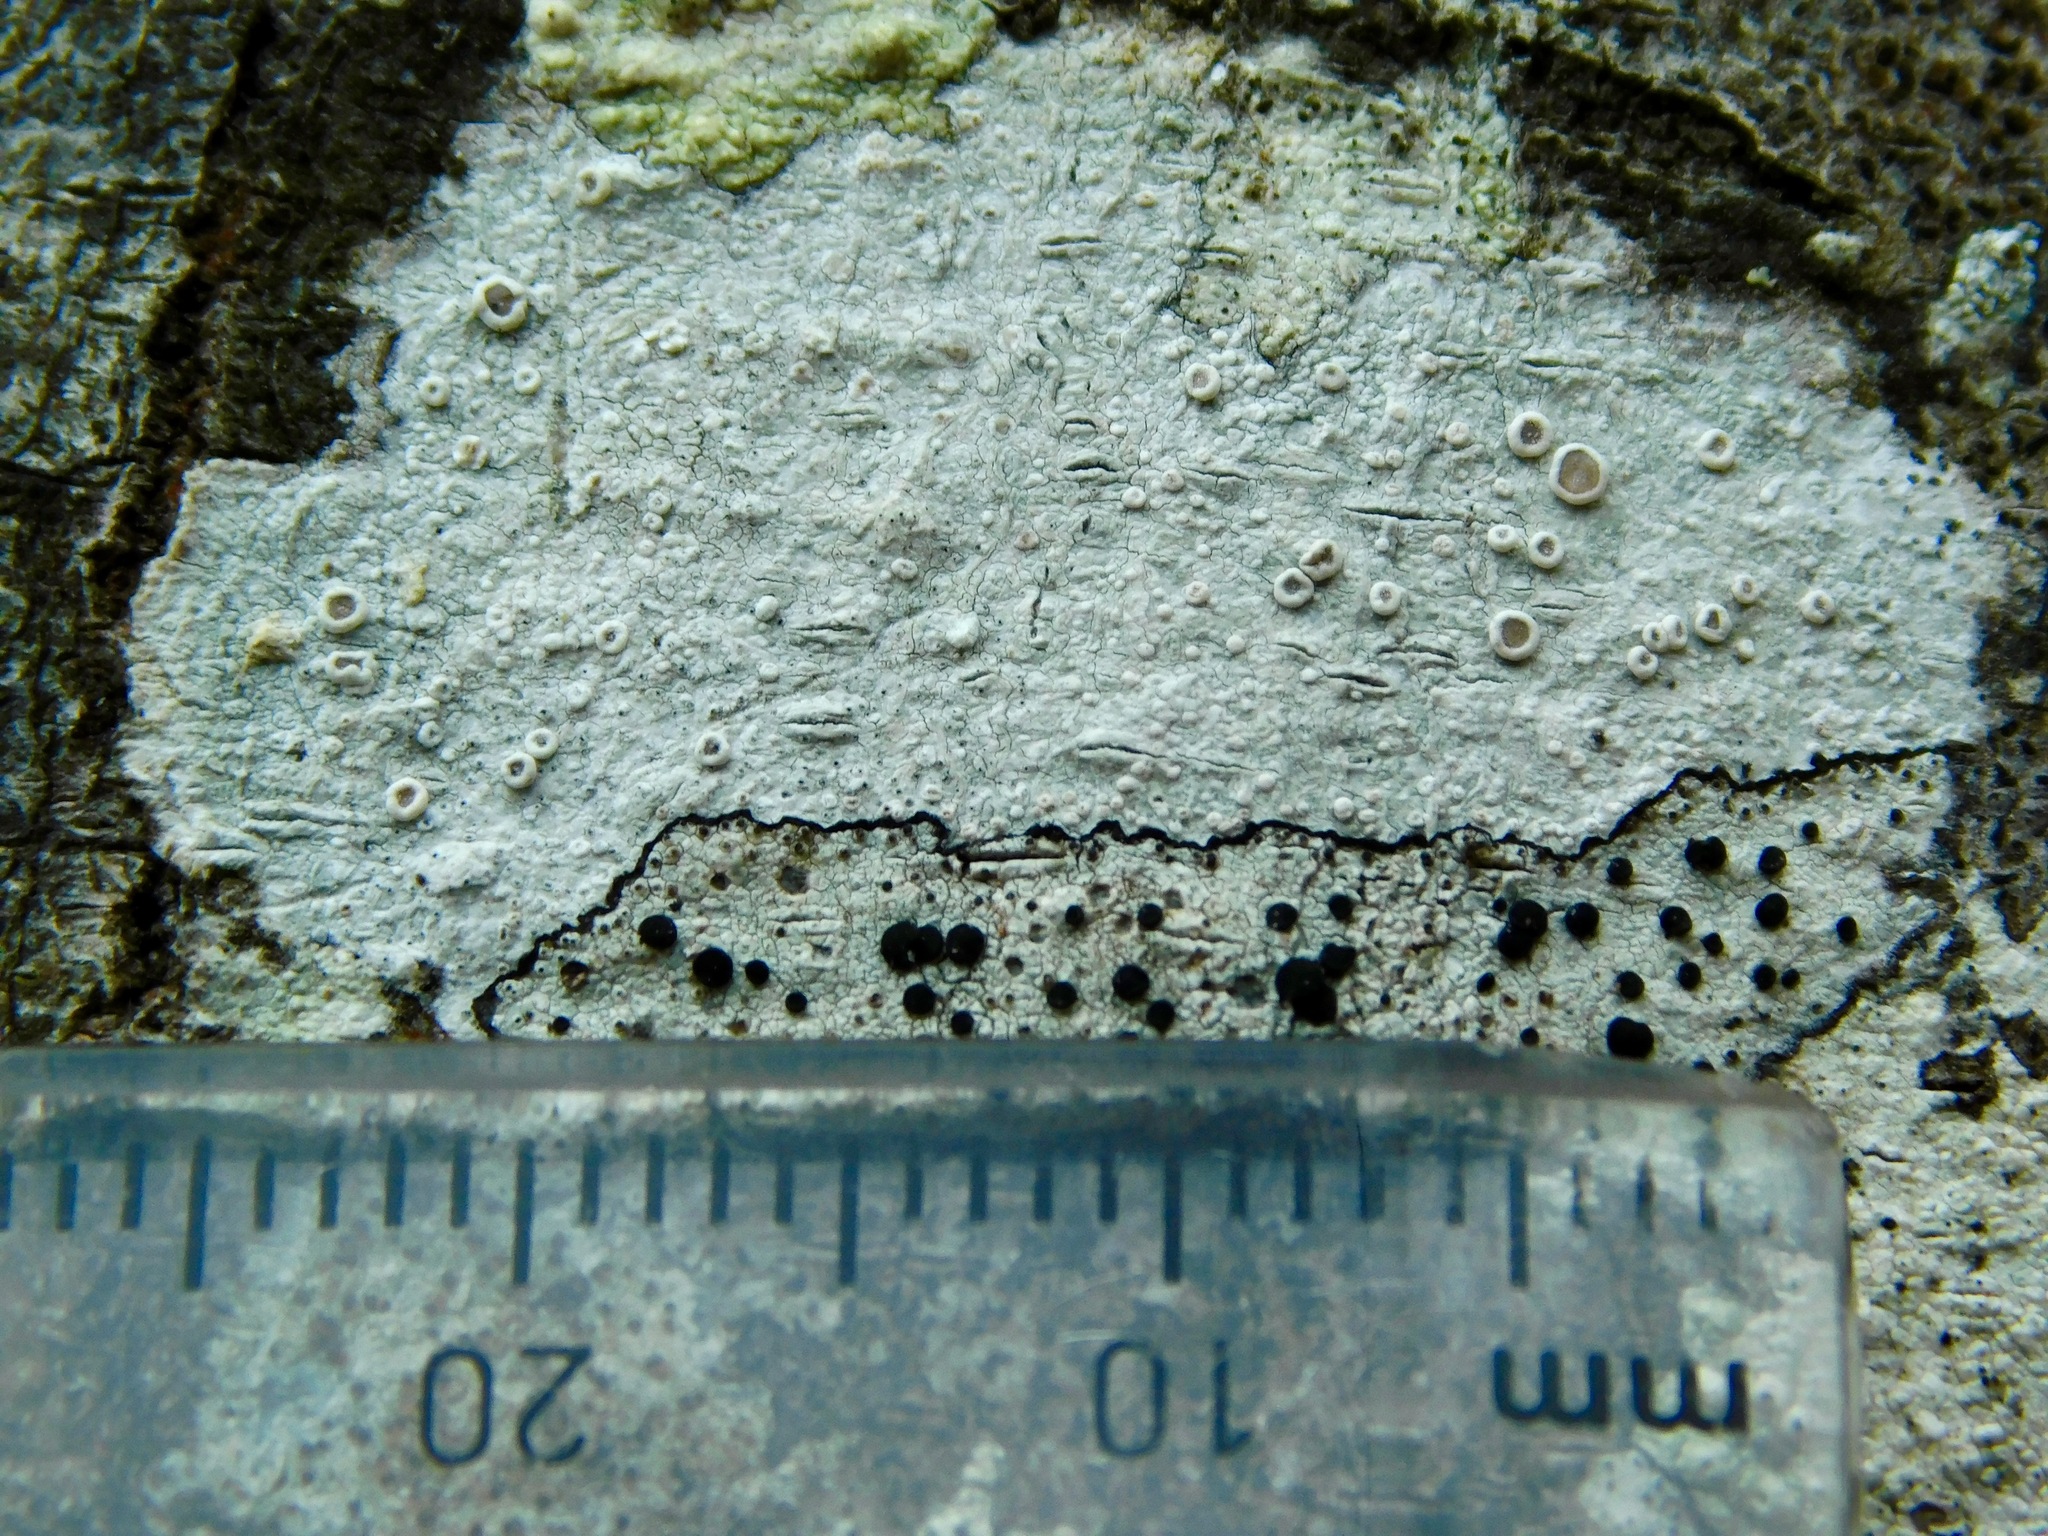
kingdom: Fungi
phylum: Ascomycota
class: Lecanoromycetes
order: Lecanorales
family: Lecanoraceae
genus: Lecanora
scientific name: Lecanora caesiorubella
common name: Frosted rim-lichen
